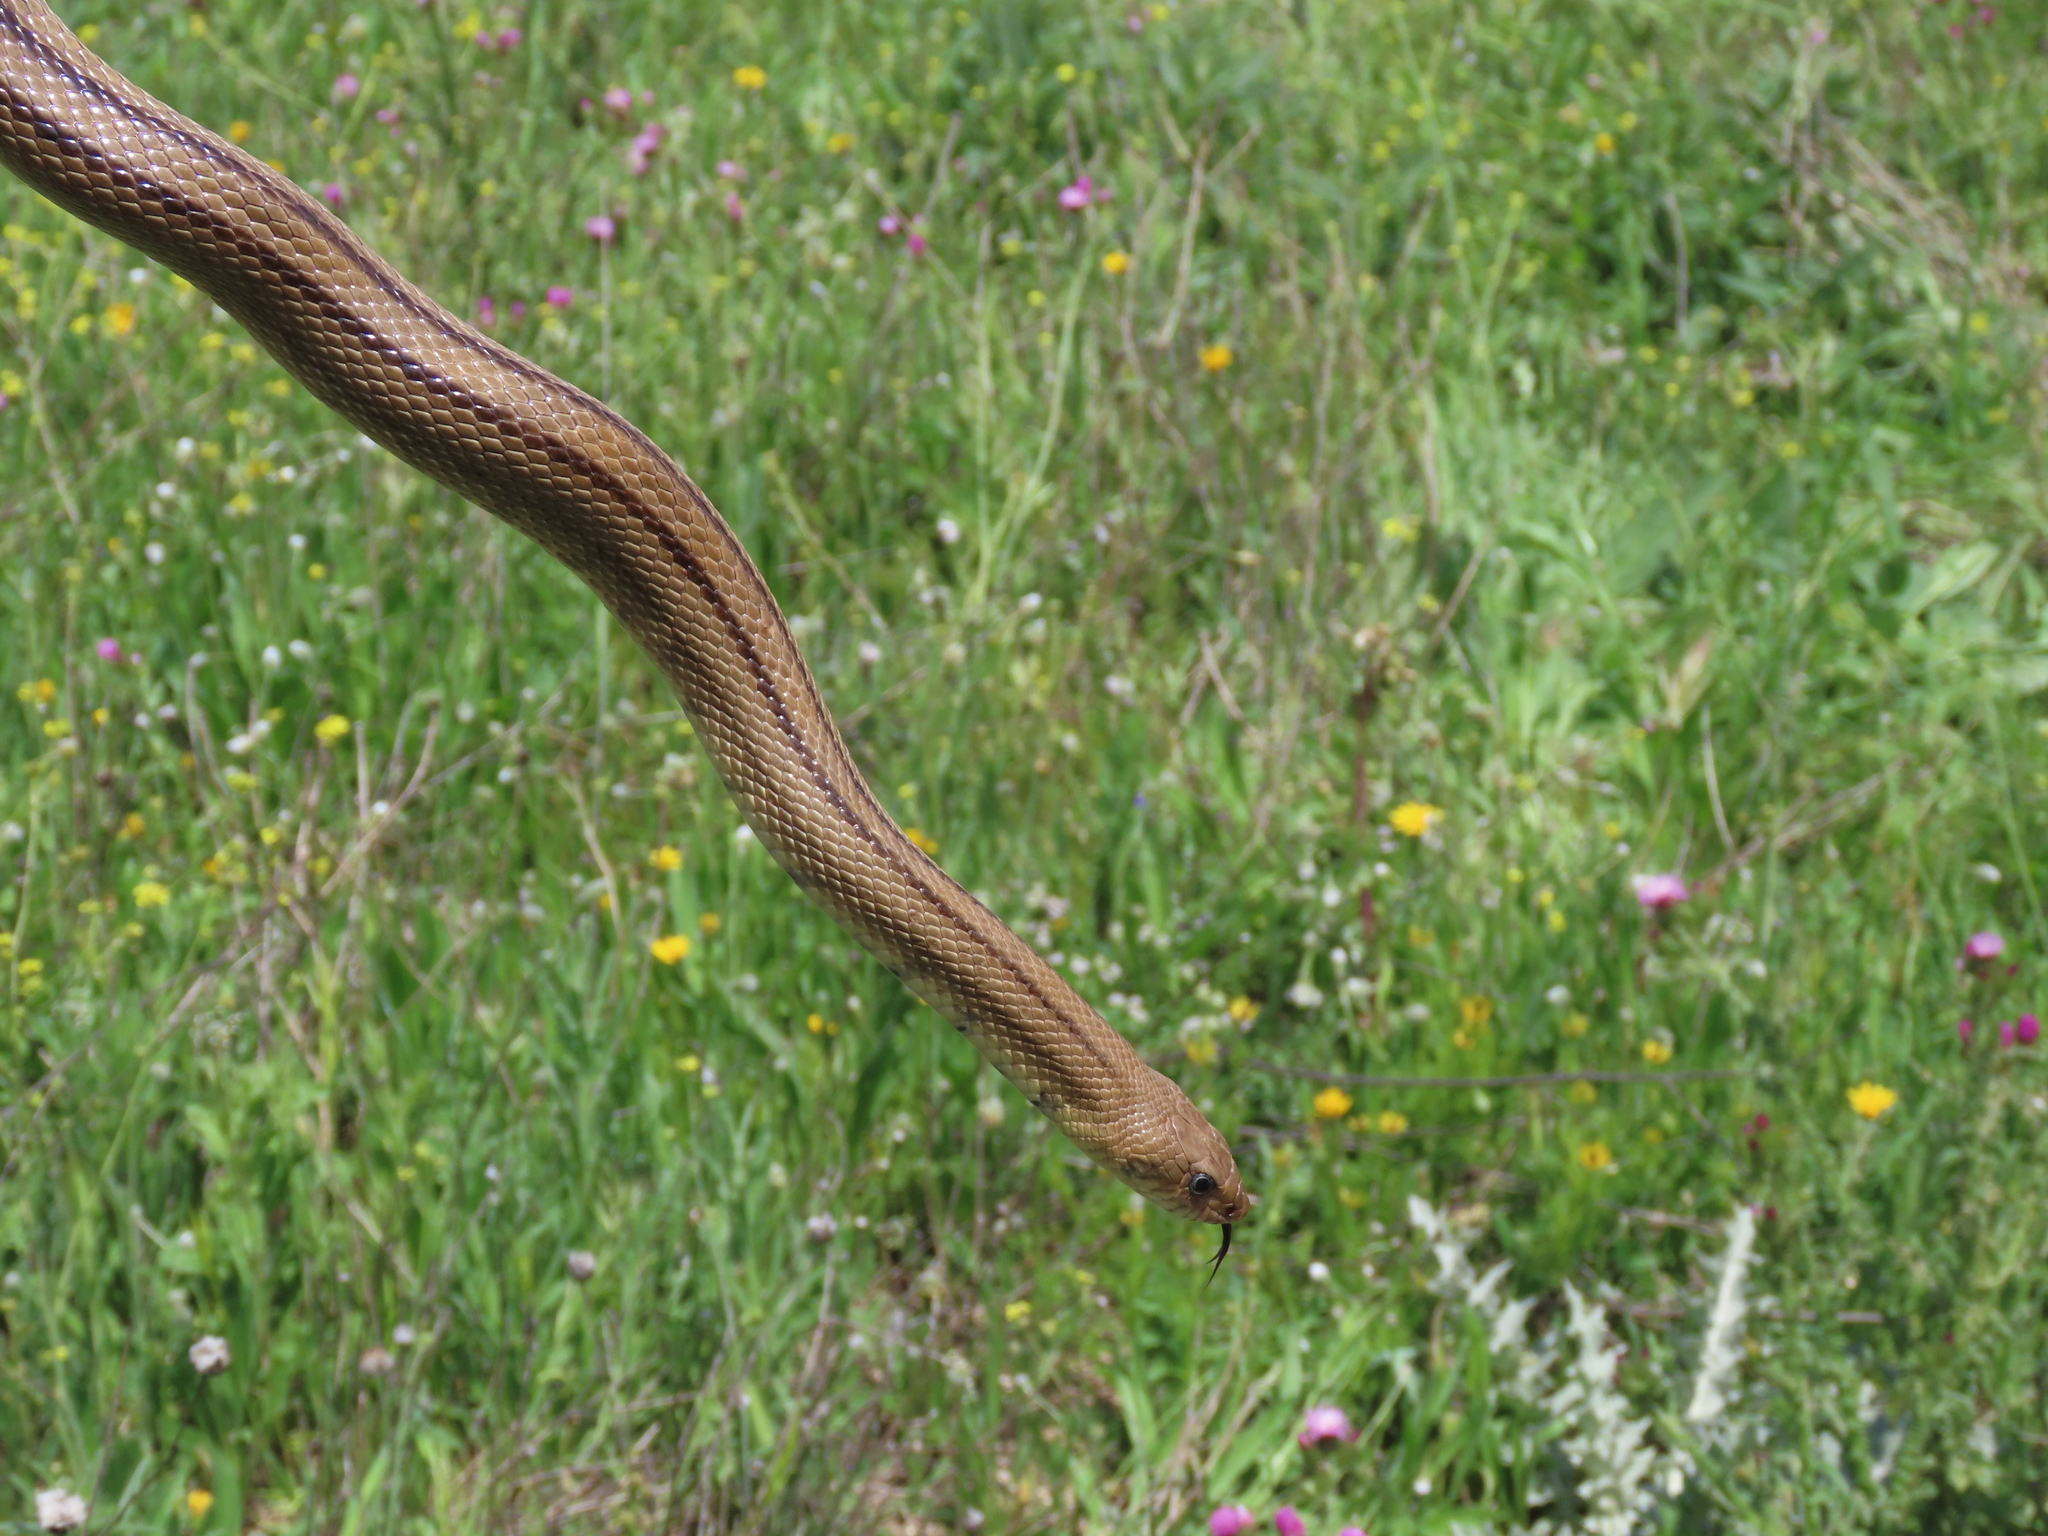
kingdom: Animalia
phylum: Chordata
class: Squamata
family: Colubridae
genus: Zamenis
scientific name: Zamenis scalaris
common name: Ladder snakes
